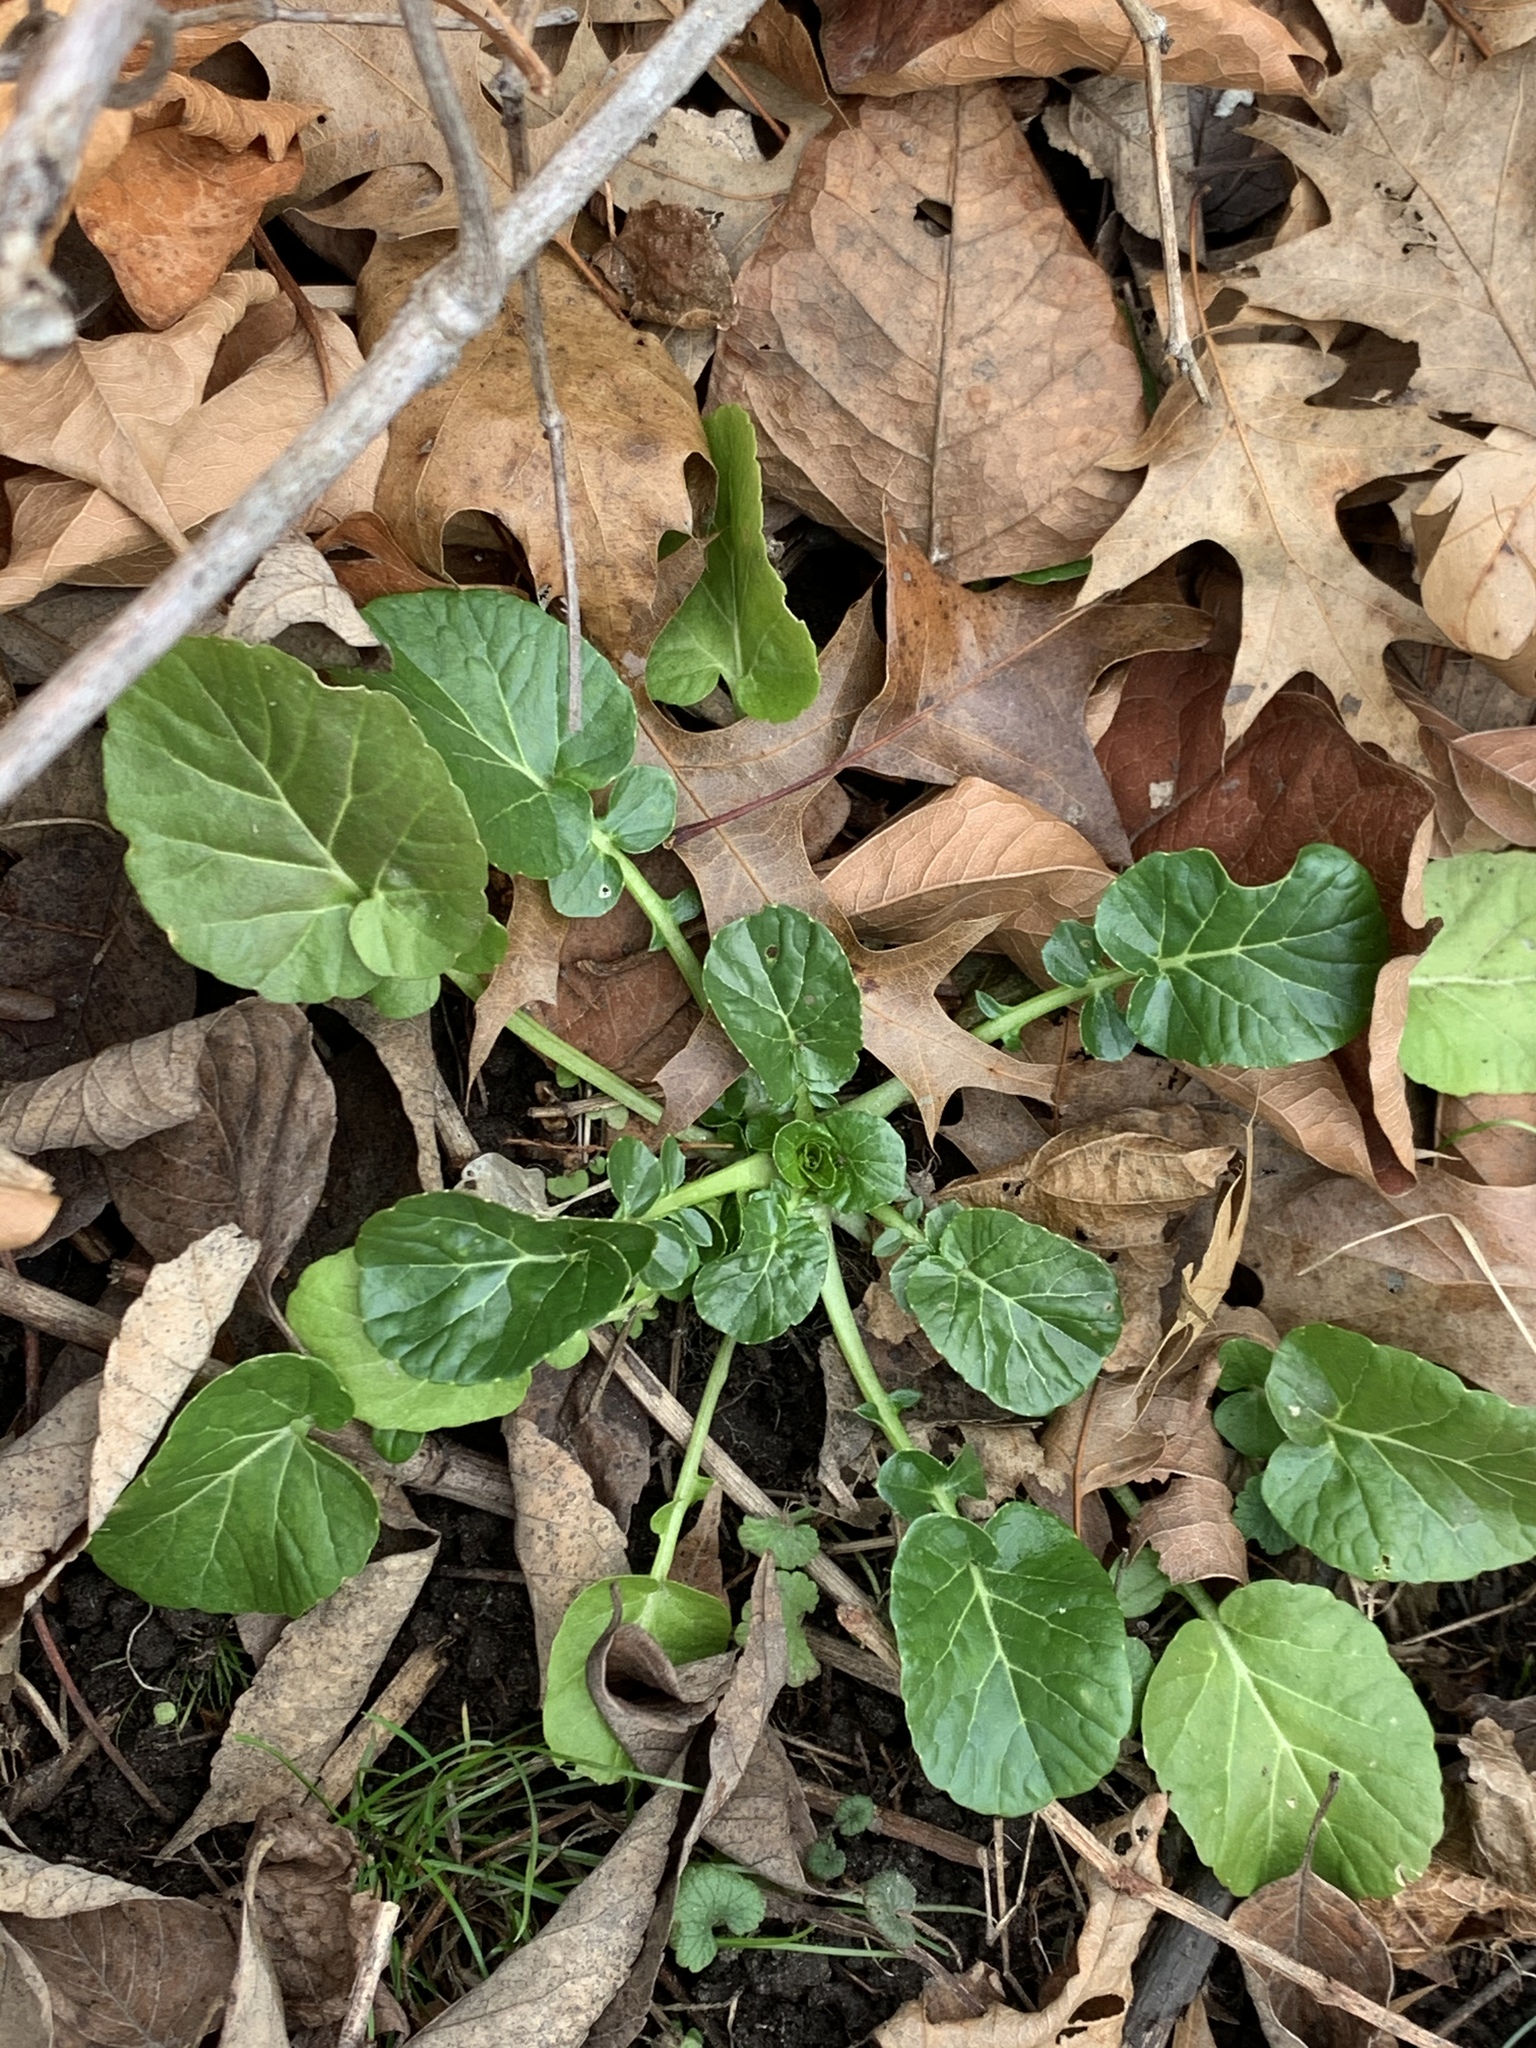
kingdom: Plantae
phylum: Tracheophyta
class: Magnoliopsida
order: Brassicales
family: Brassicaceae
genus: Barbarea
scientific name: Barbarea vulgaris
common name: Cressy-greens
